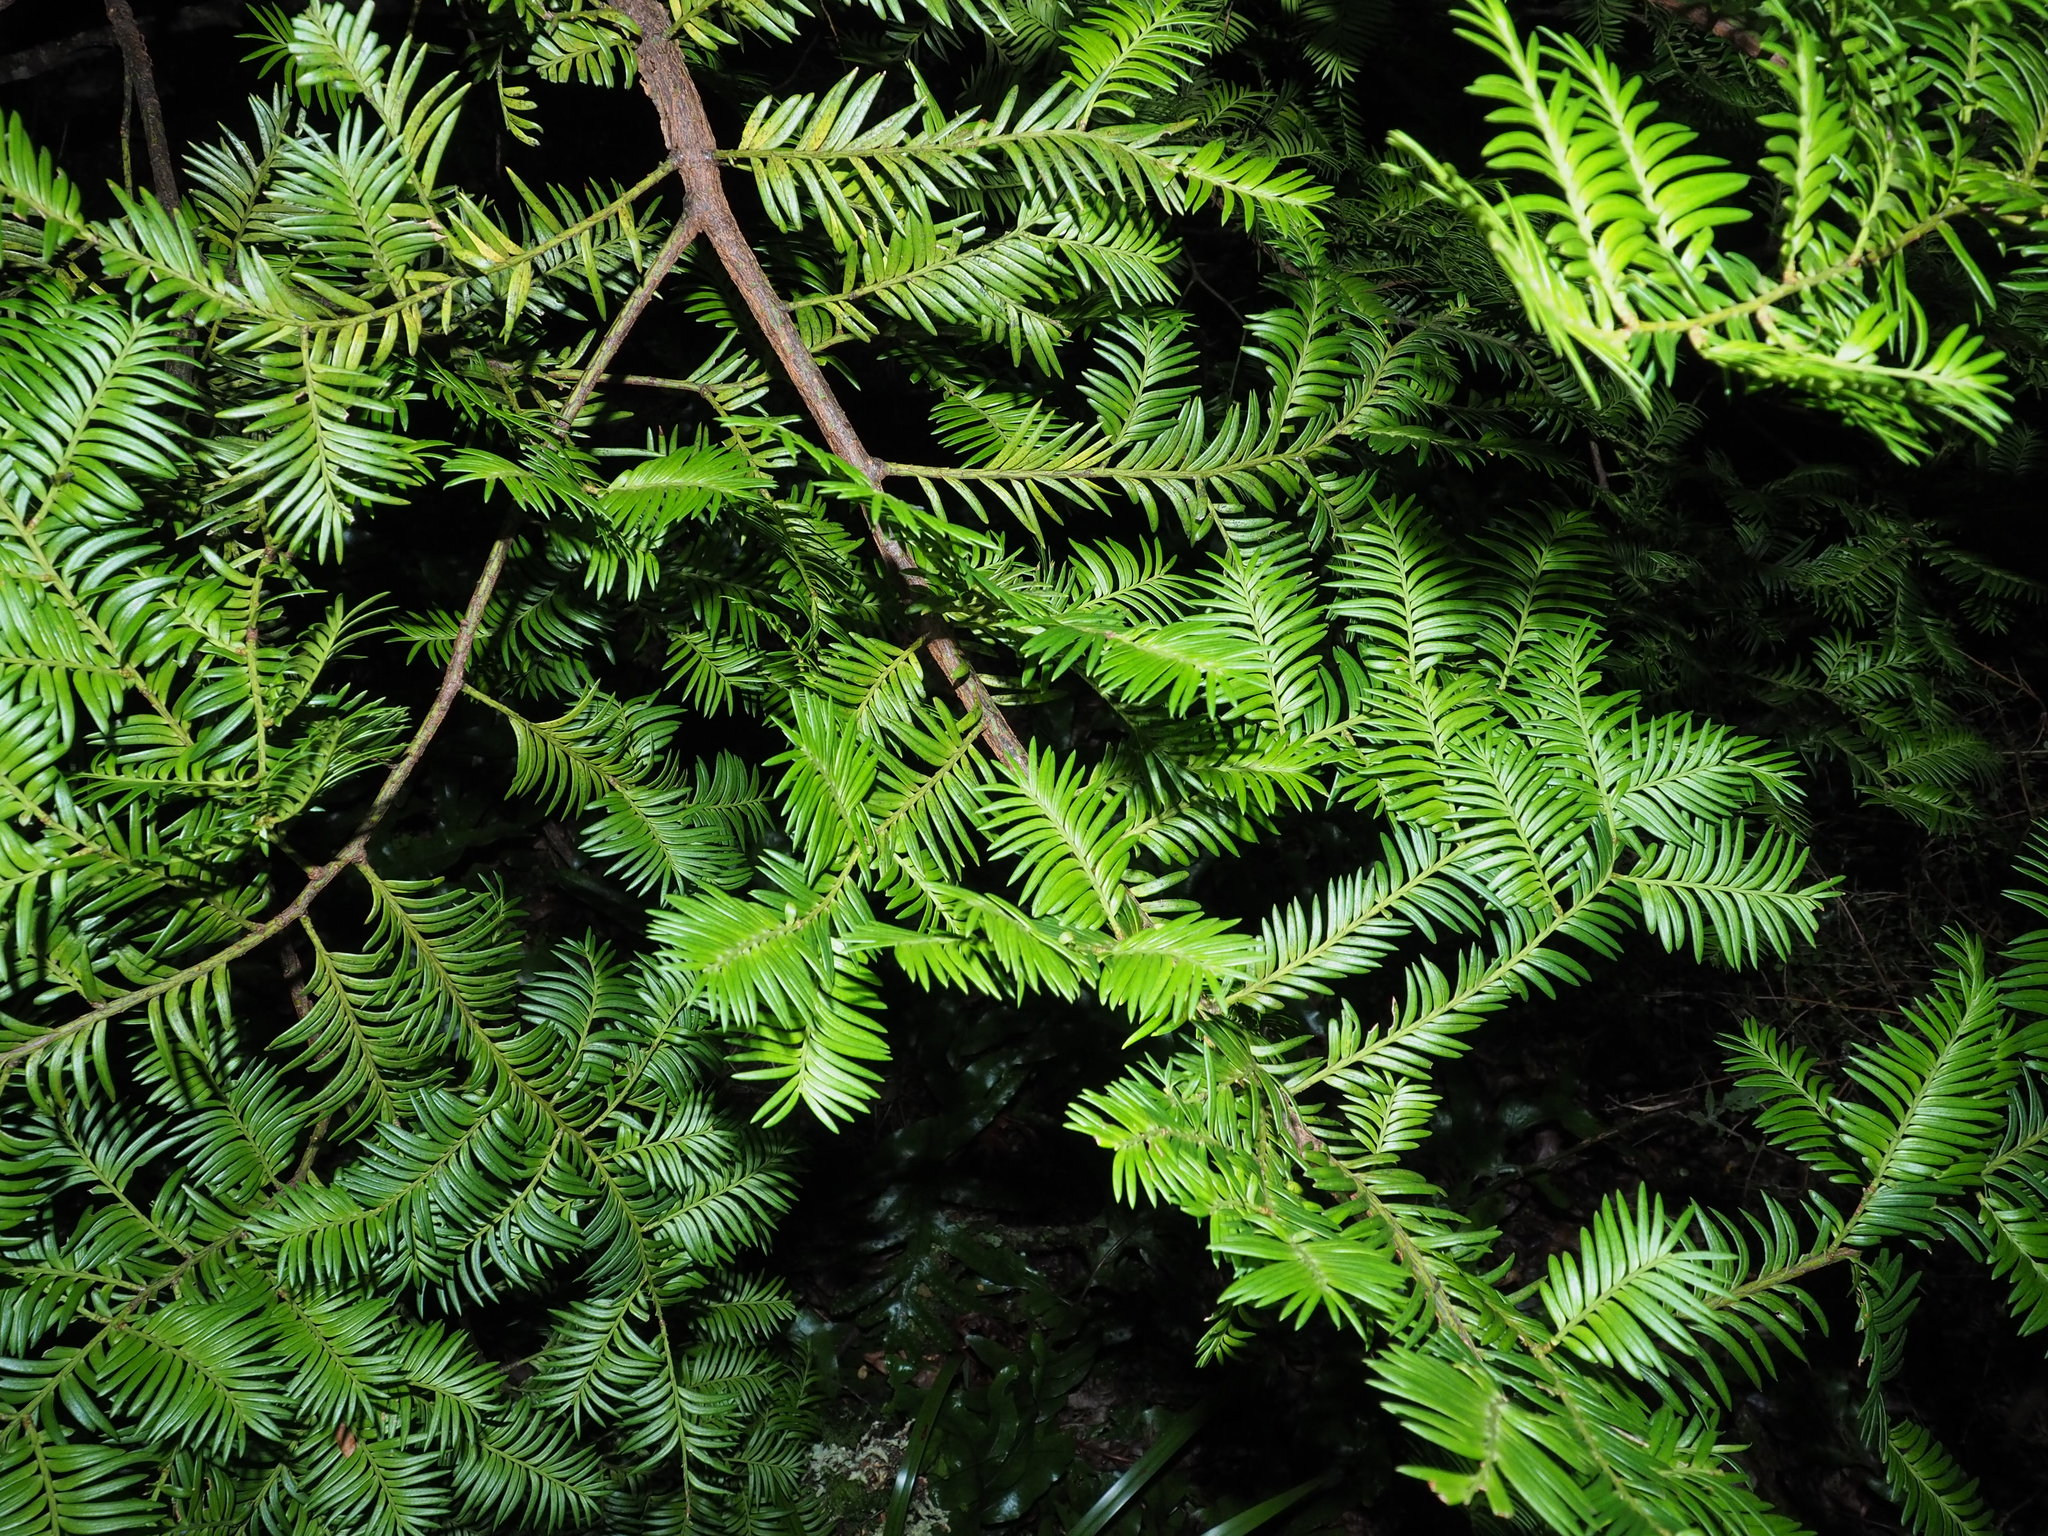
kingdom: Plantae
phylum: Tracheophyta
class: Pinopsida
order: Pinales
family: Podocarpaceae
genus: Prumnopitys
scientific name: Prumnopitys ferruginea
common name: Brown pine
